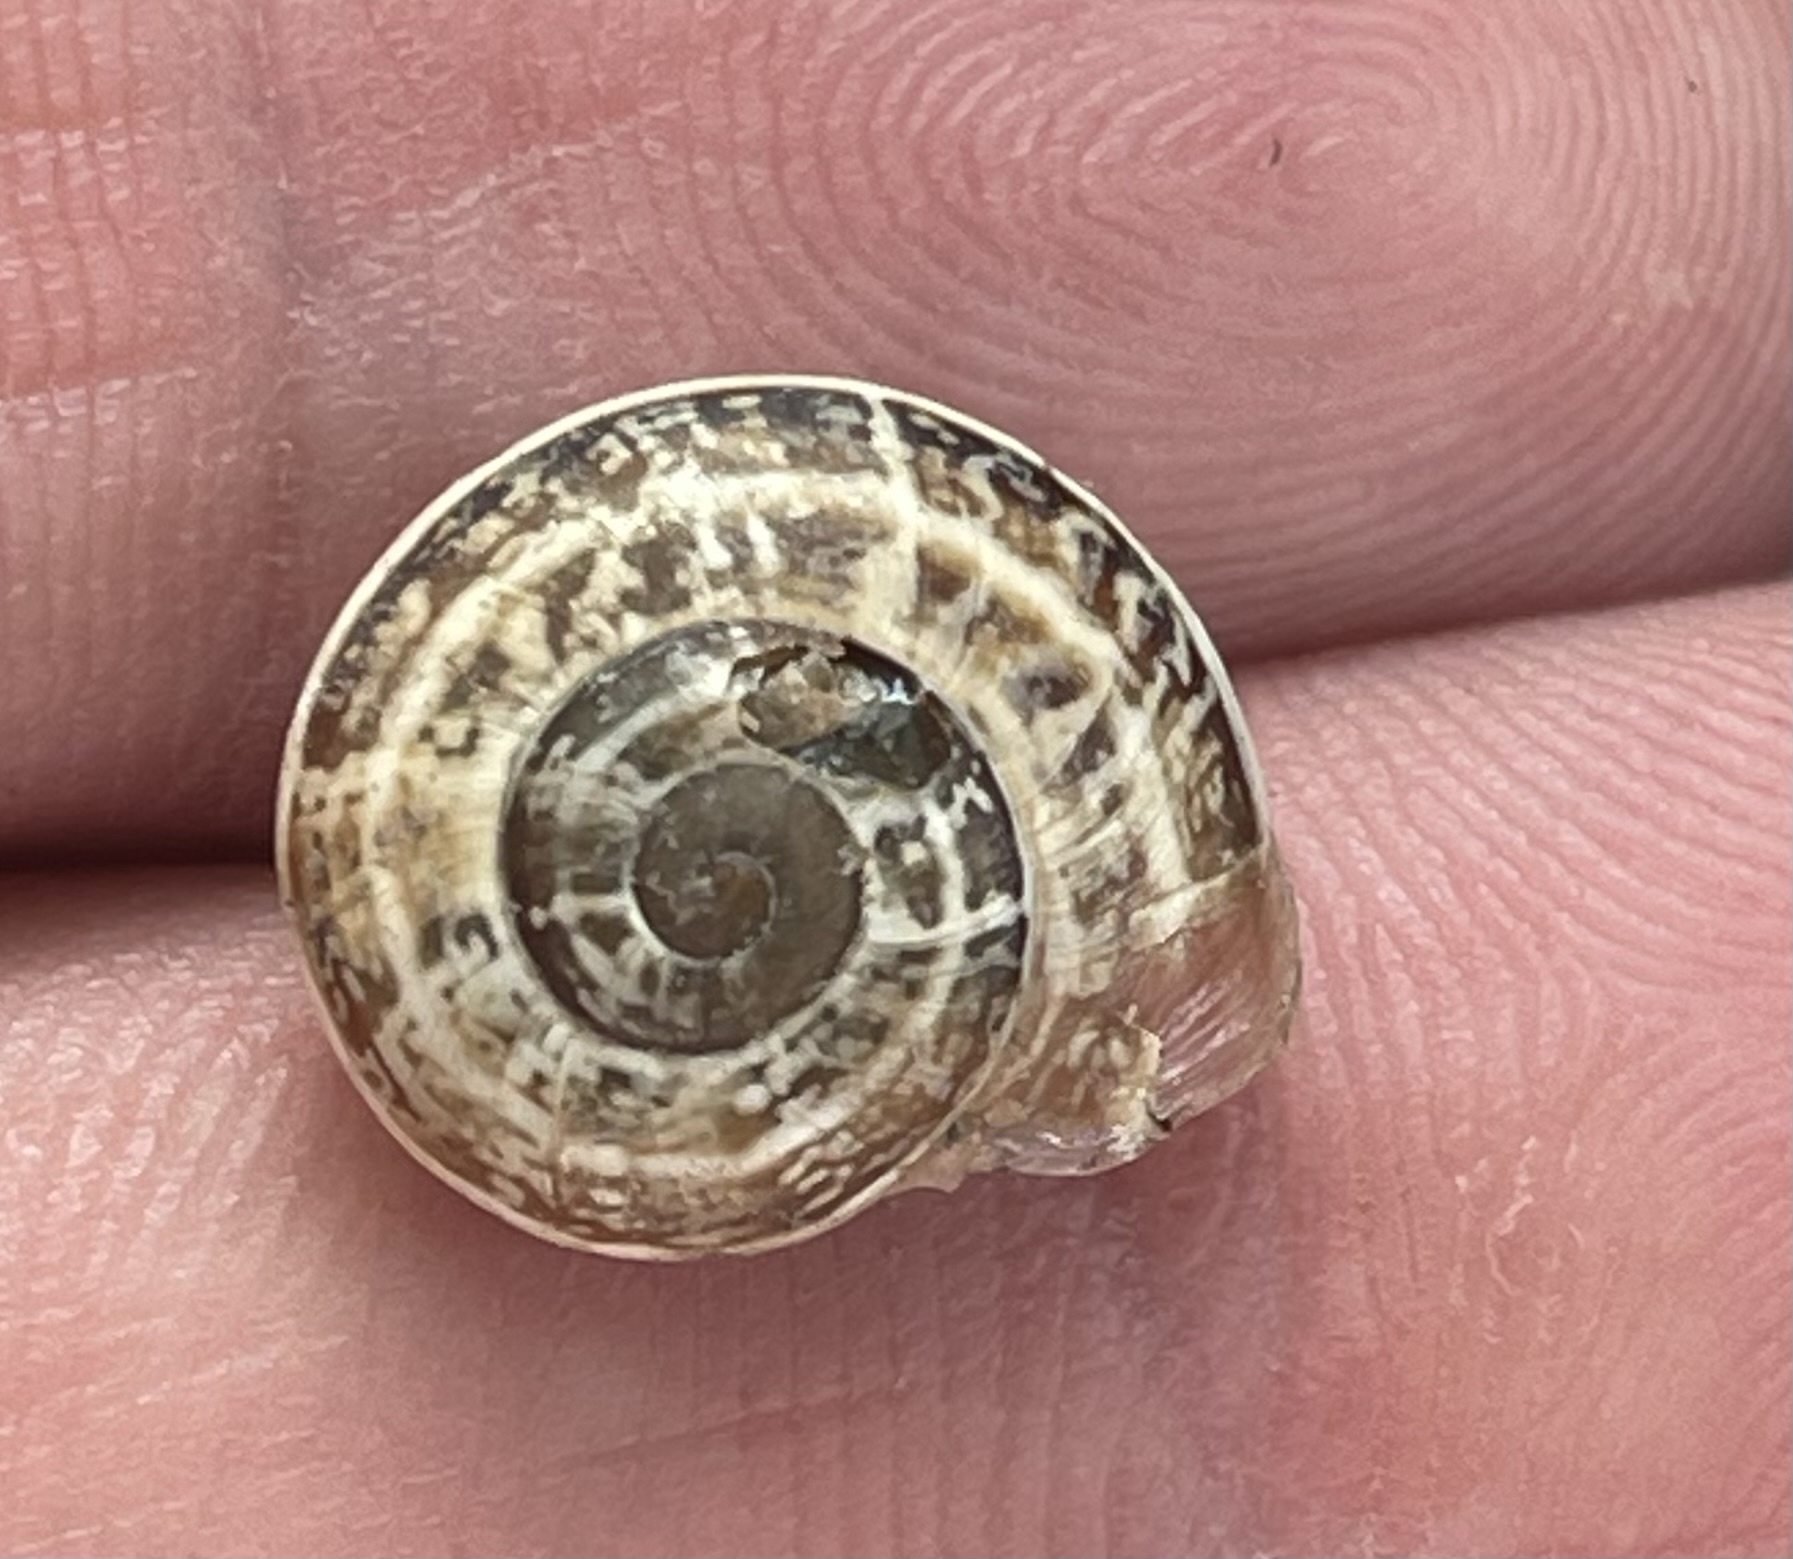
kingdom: Animalia
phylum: Mollusca
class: Gastropoda
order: Stylommatophora
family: Helicidae
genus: Otala
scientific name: Otala lactea
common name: Milk snail
